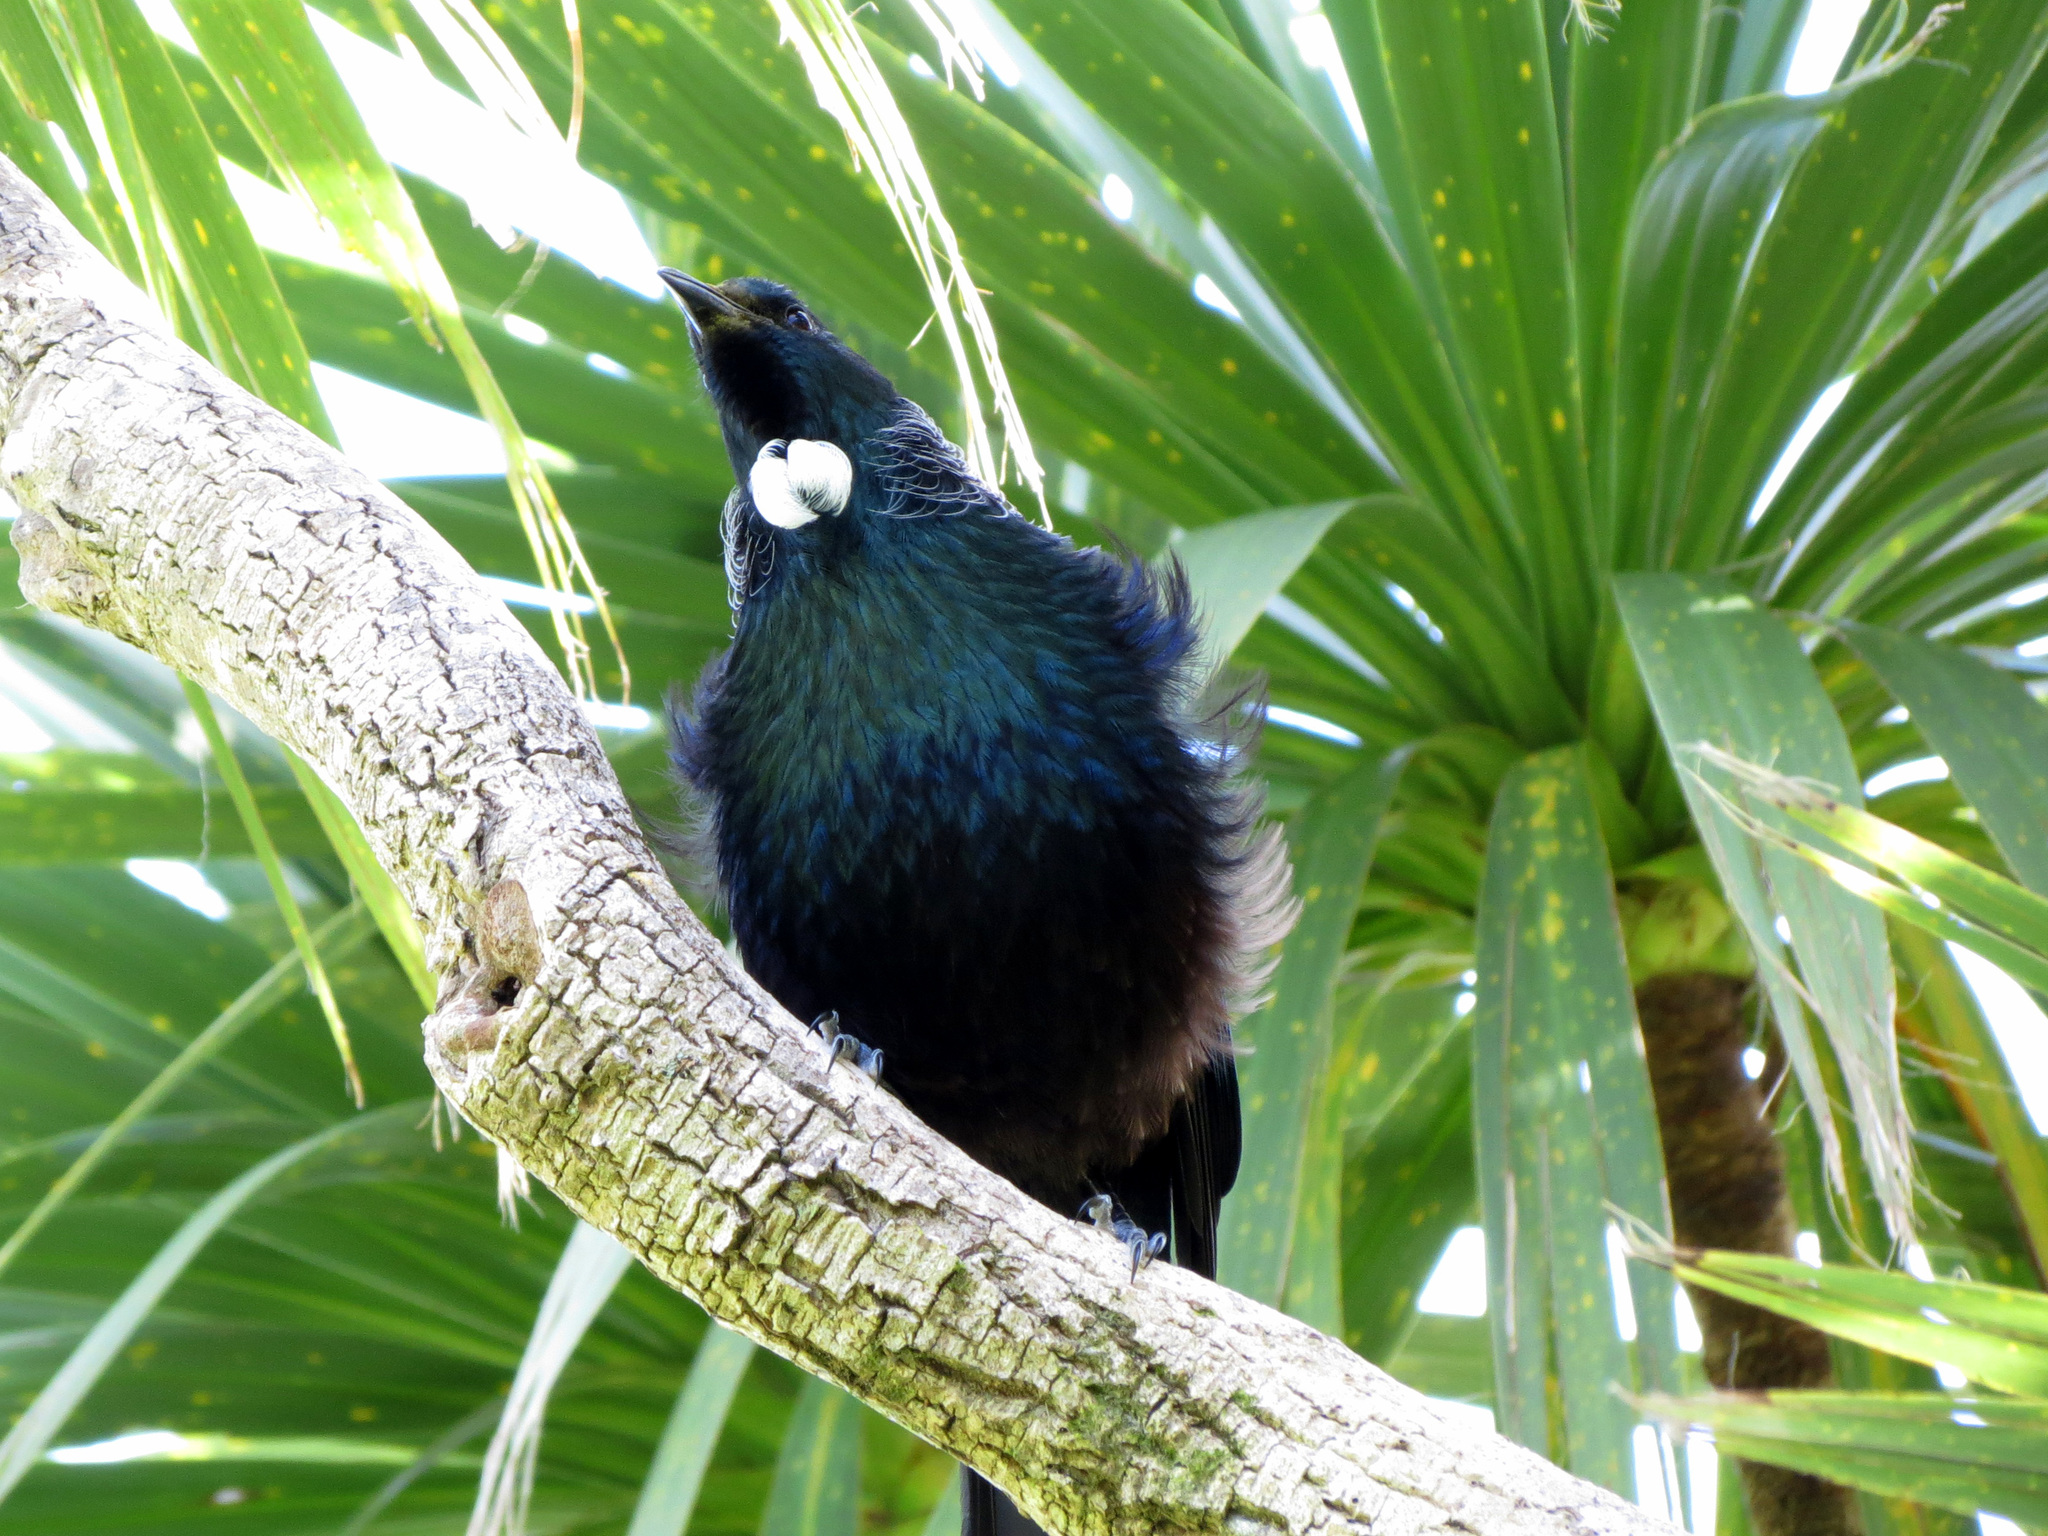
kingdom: Animalia
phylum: Chordata
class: Aves
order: Passeriformes
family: Meliphagidae
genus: Prosthemadera
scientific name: Prosthemadera novaeseelandiae
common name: Tui
